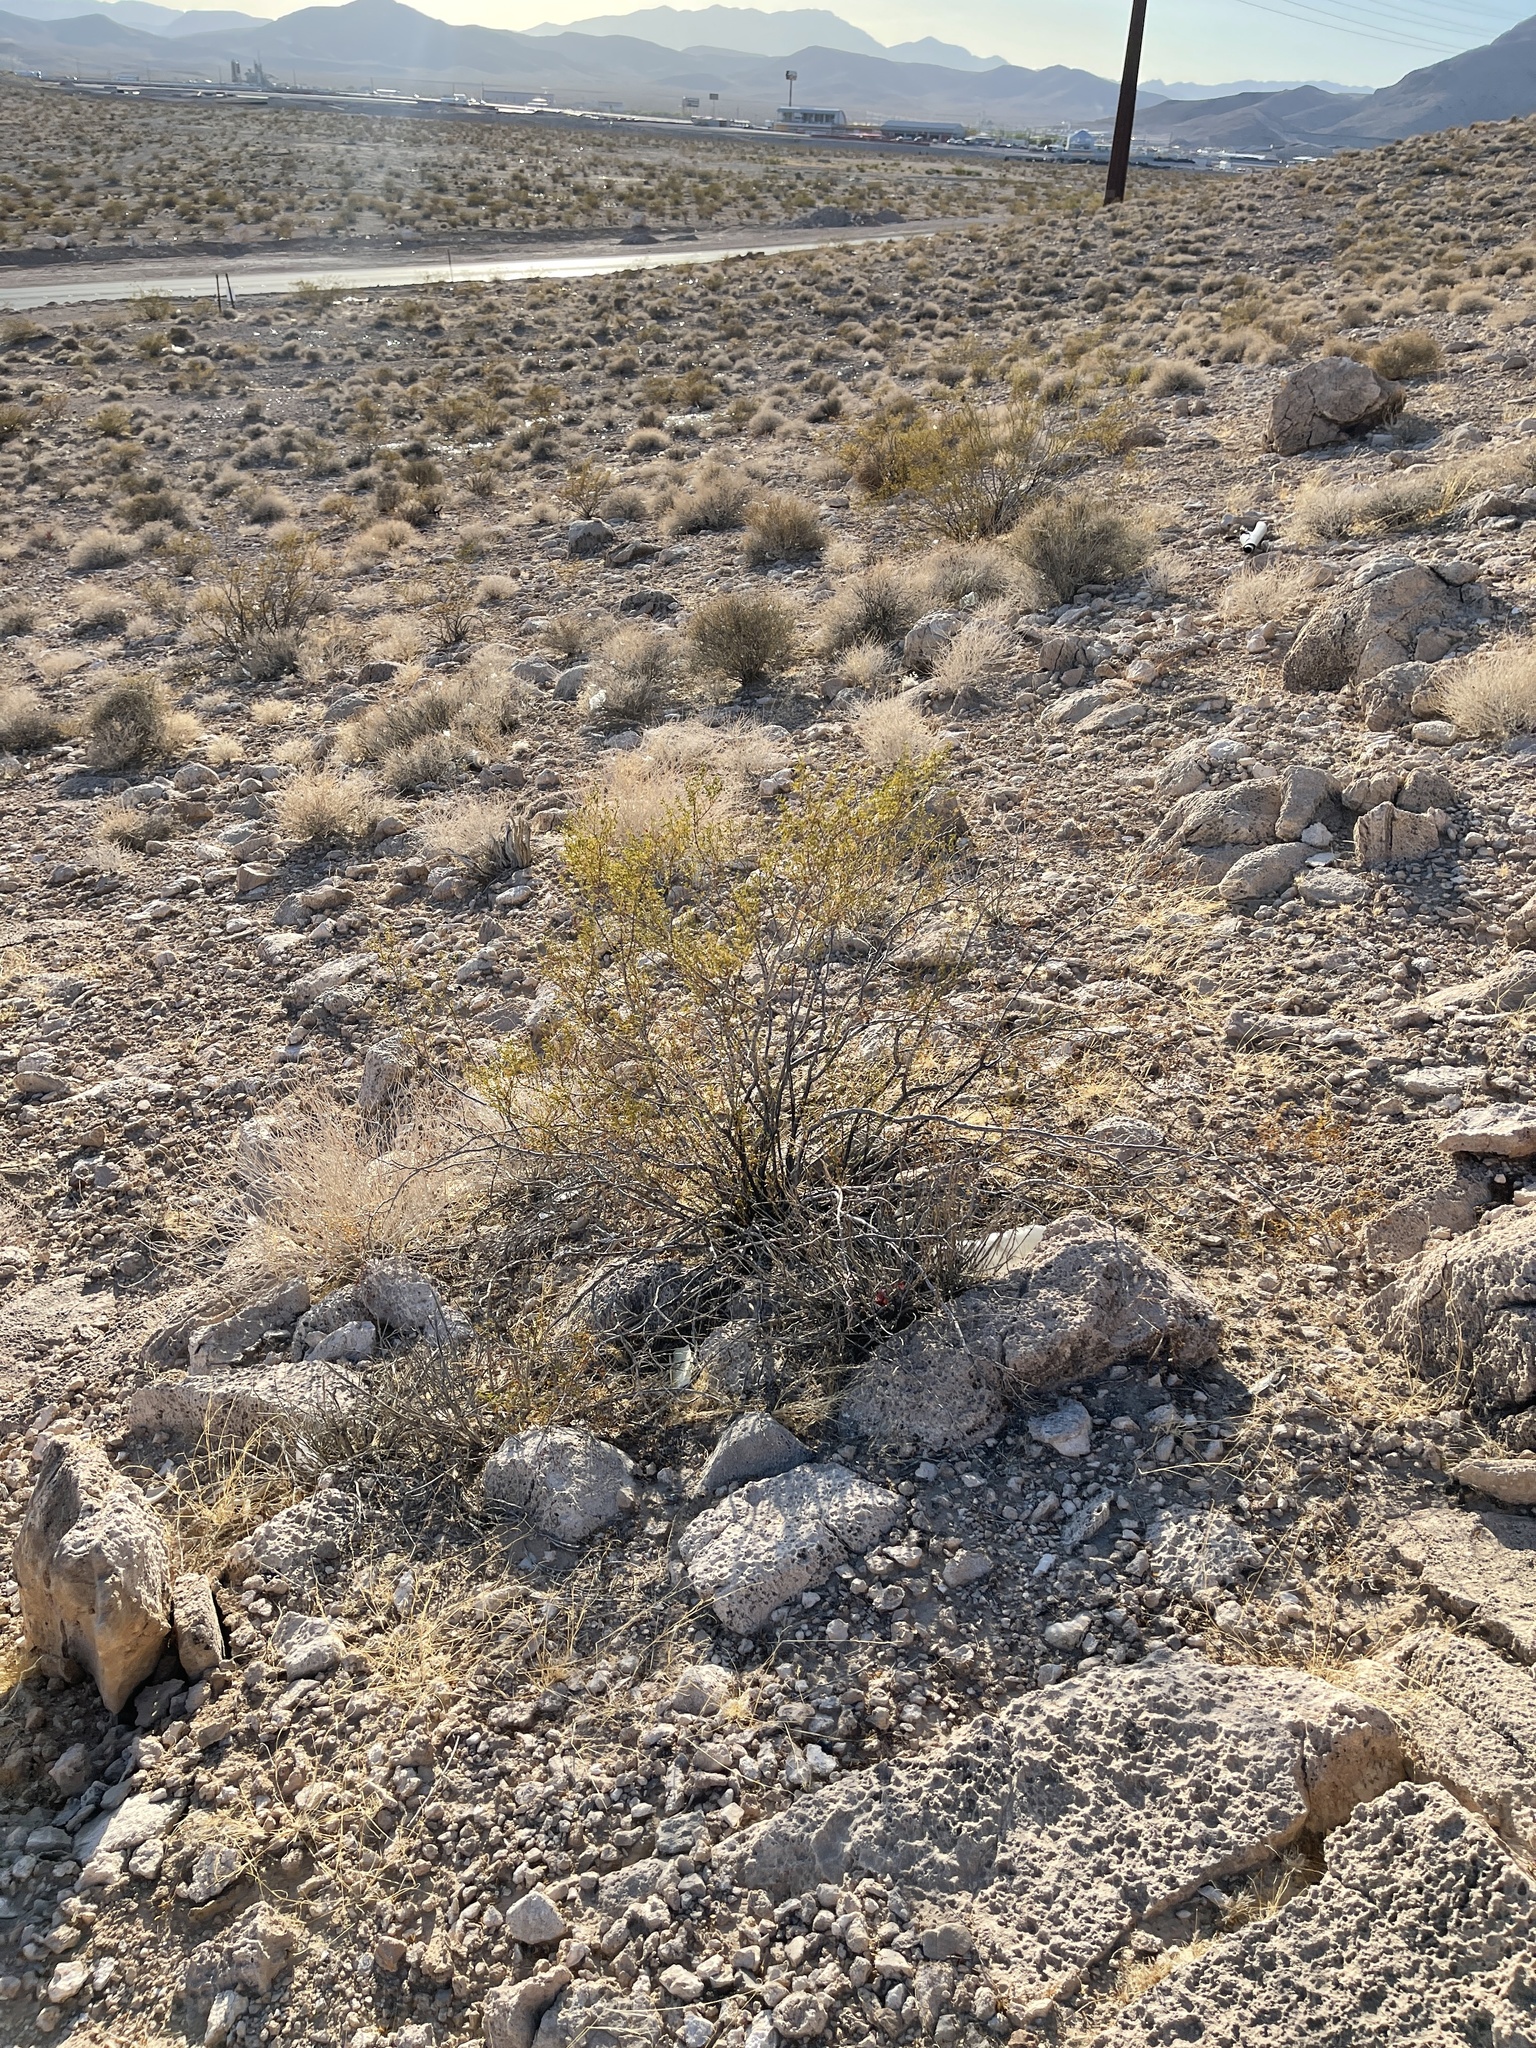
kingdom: Plantae
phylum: Tracheophyta
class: Magnoliopsida
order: Zygophyllales
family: Zygophyllaceae
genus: Larrea
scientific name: Larrea tridentata
